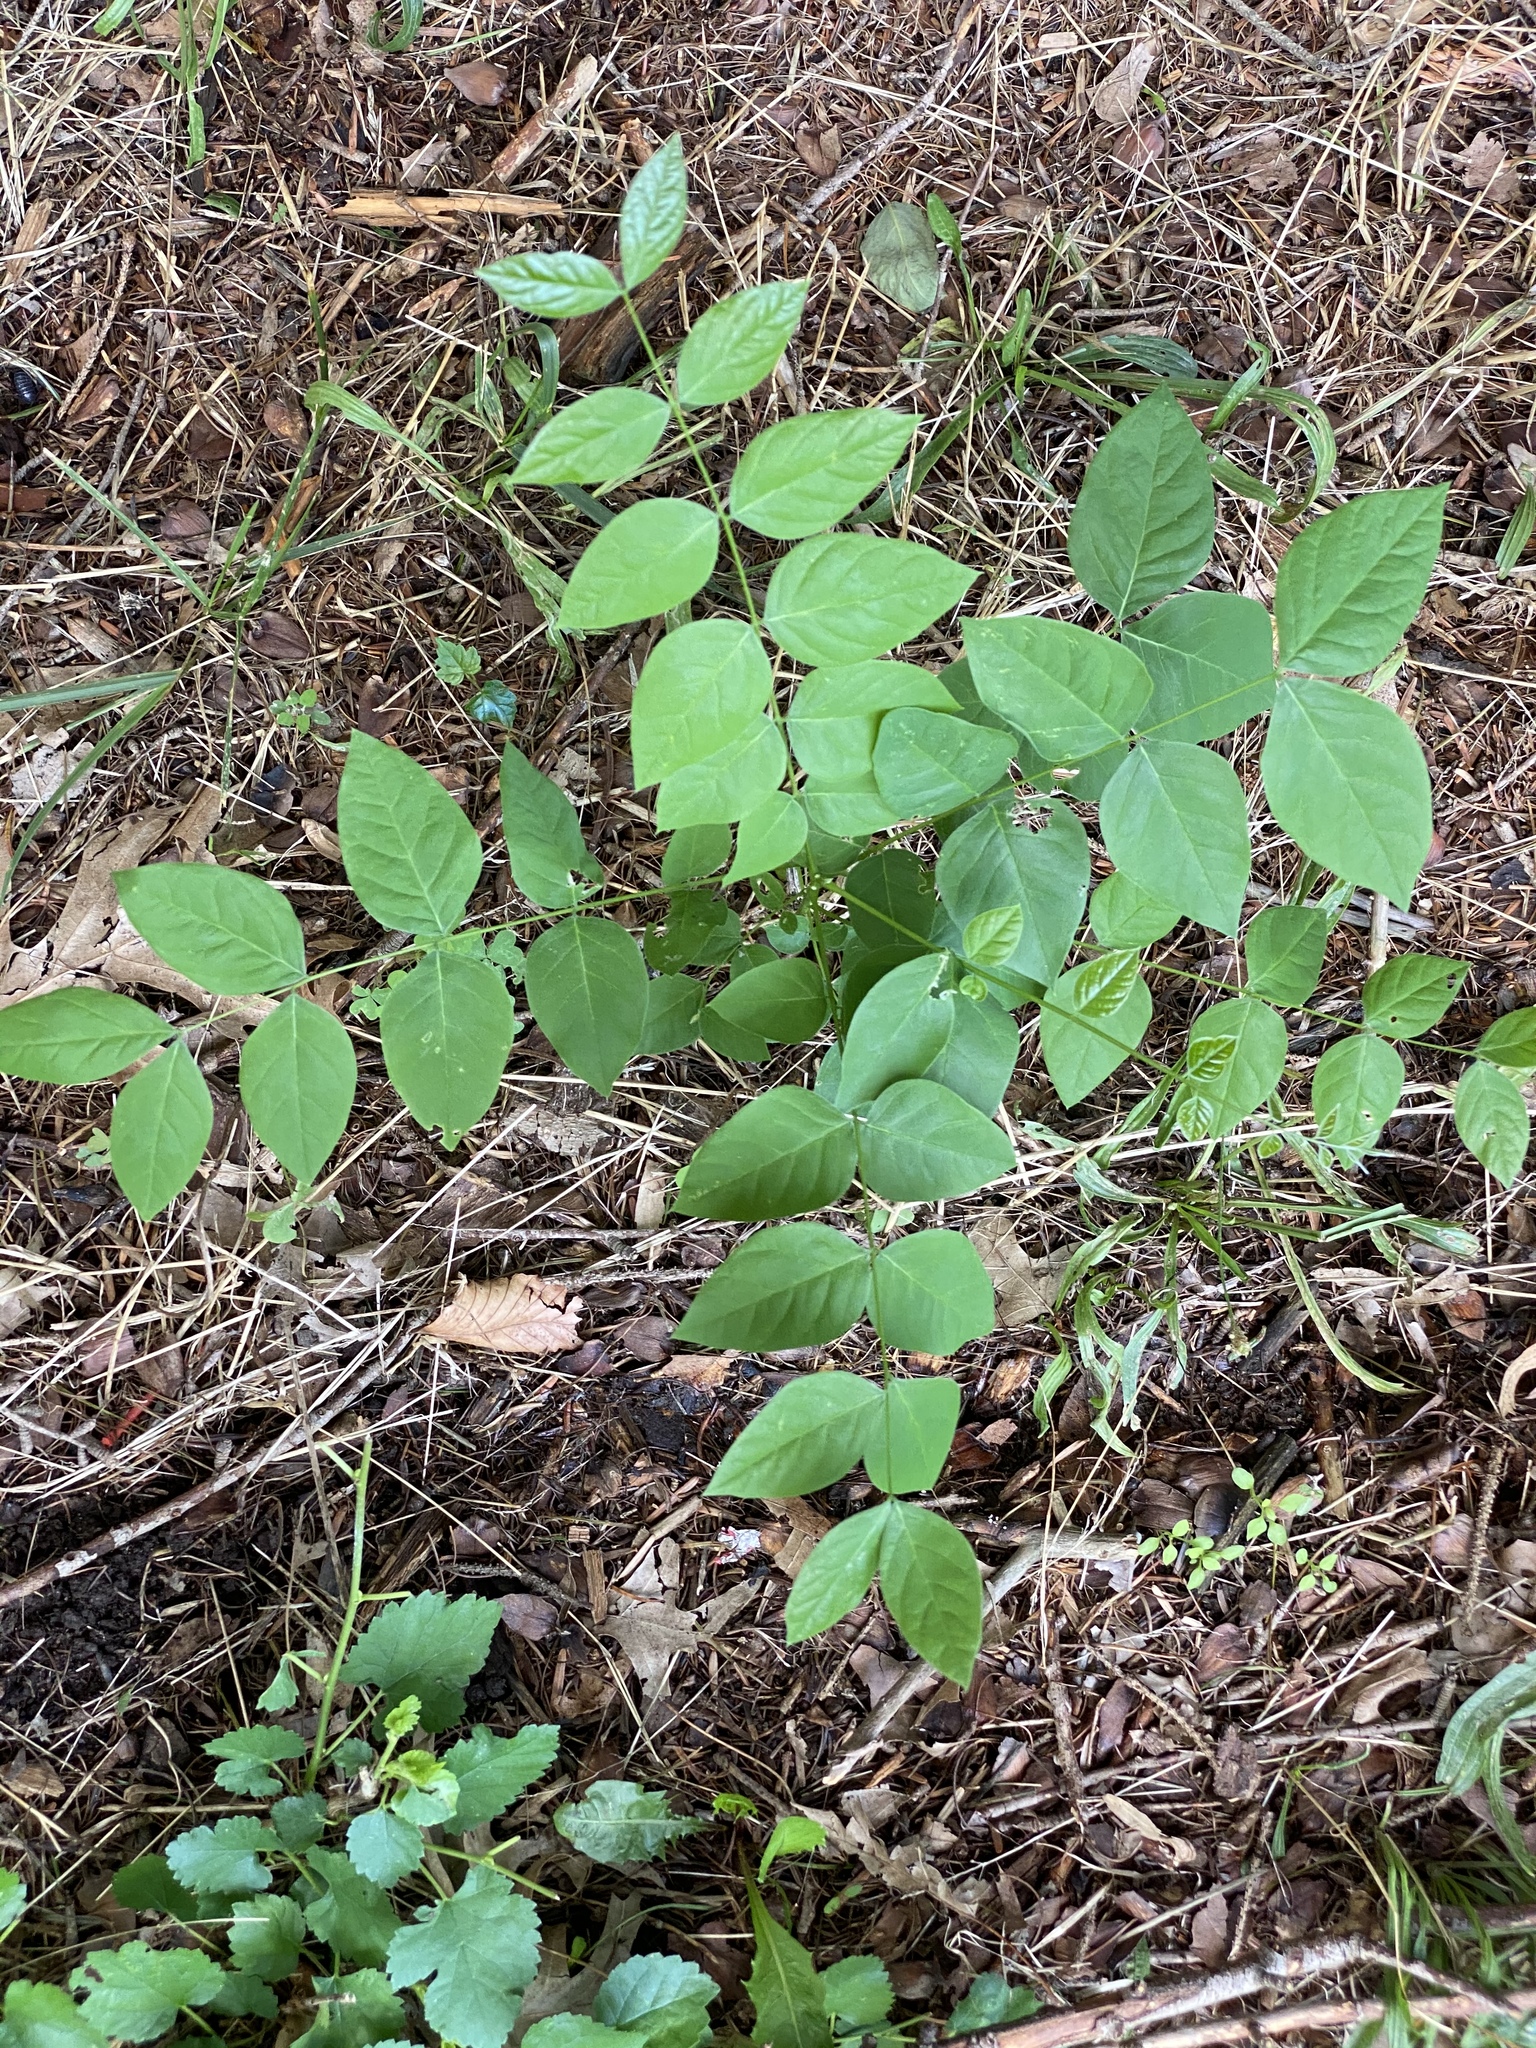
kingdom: Plantae
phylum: Tracheophyta
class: Magnoliopsida
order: Fabales
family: Fabaceae
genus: Gymnocladus
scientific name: Gymnocladus dioicus
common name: Kentucky coffee-tree
